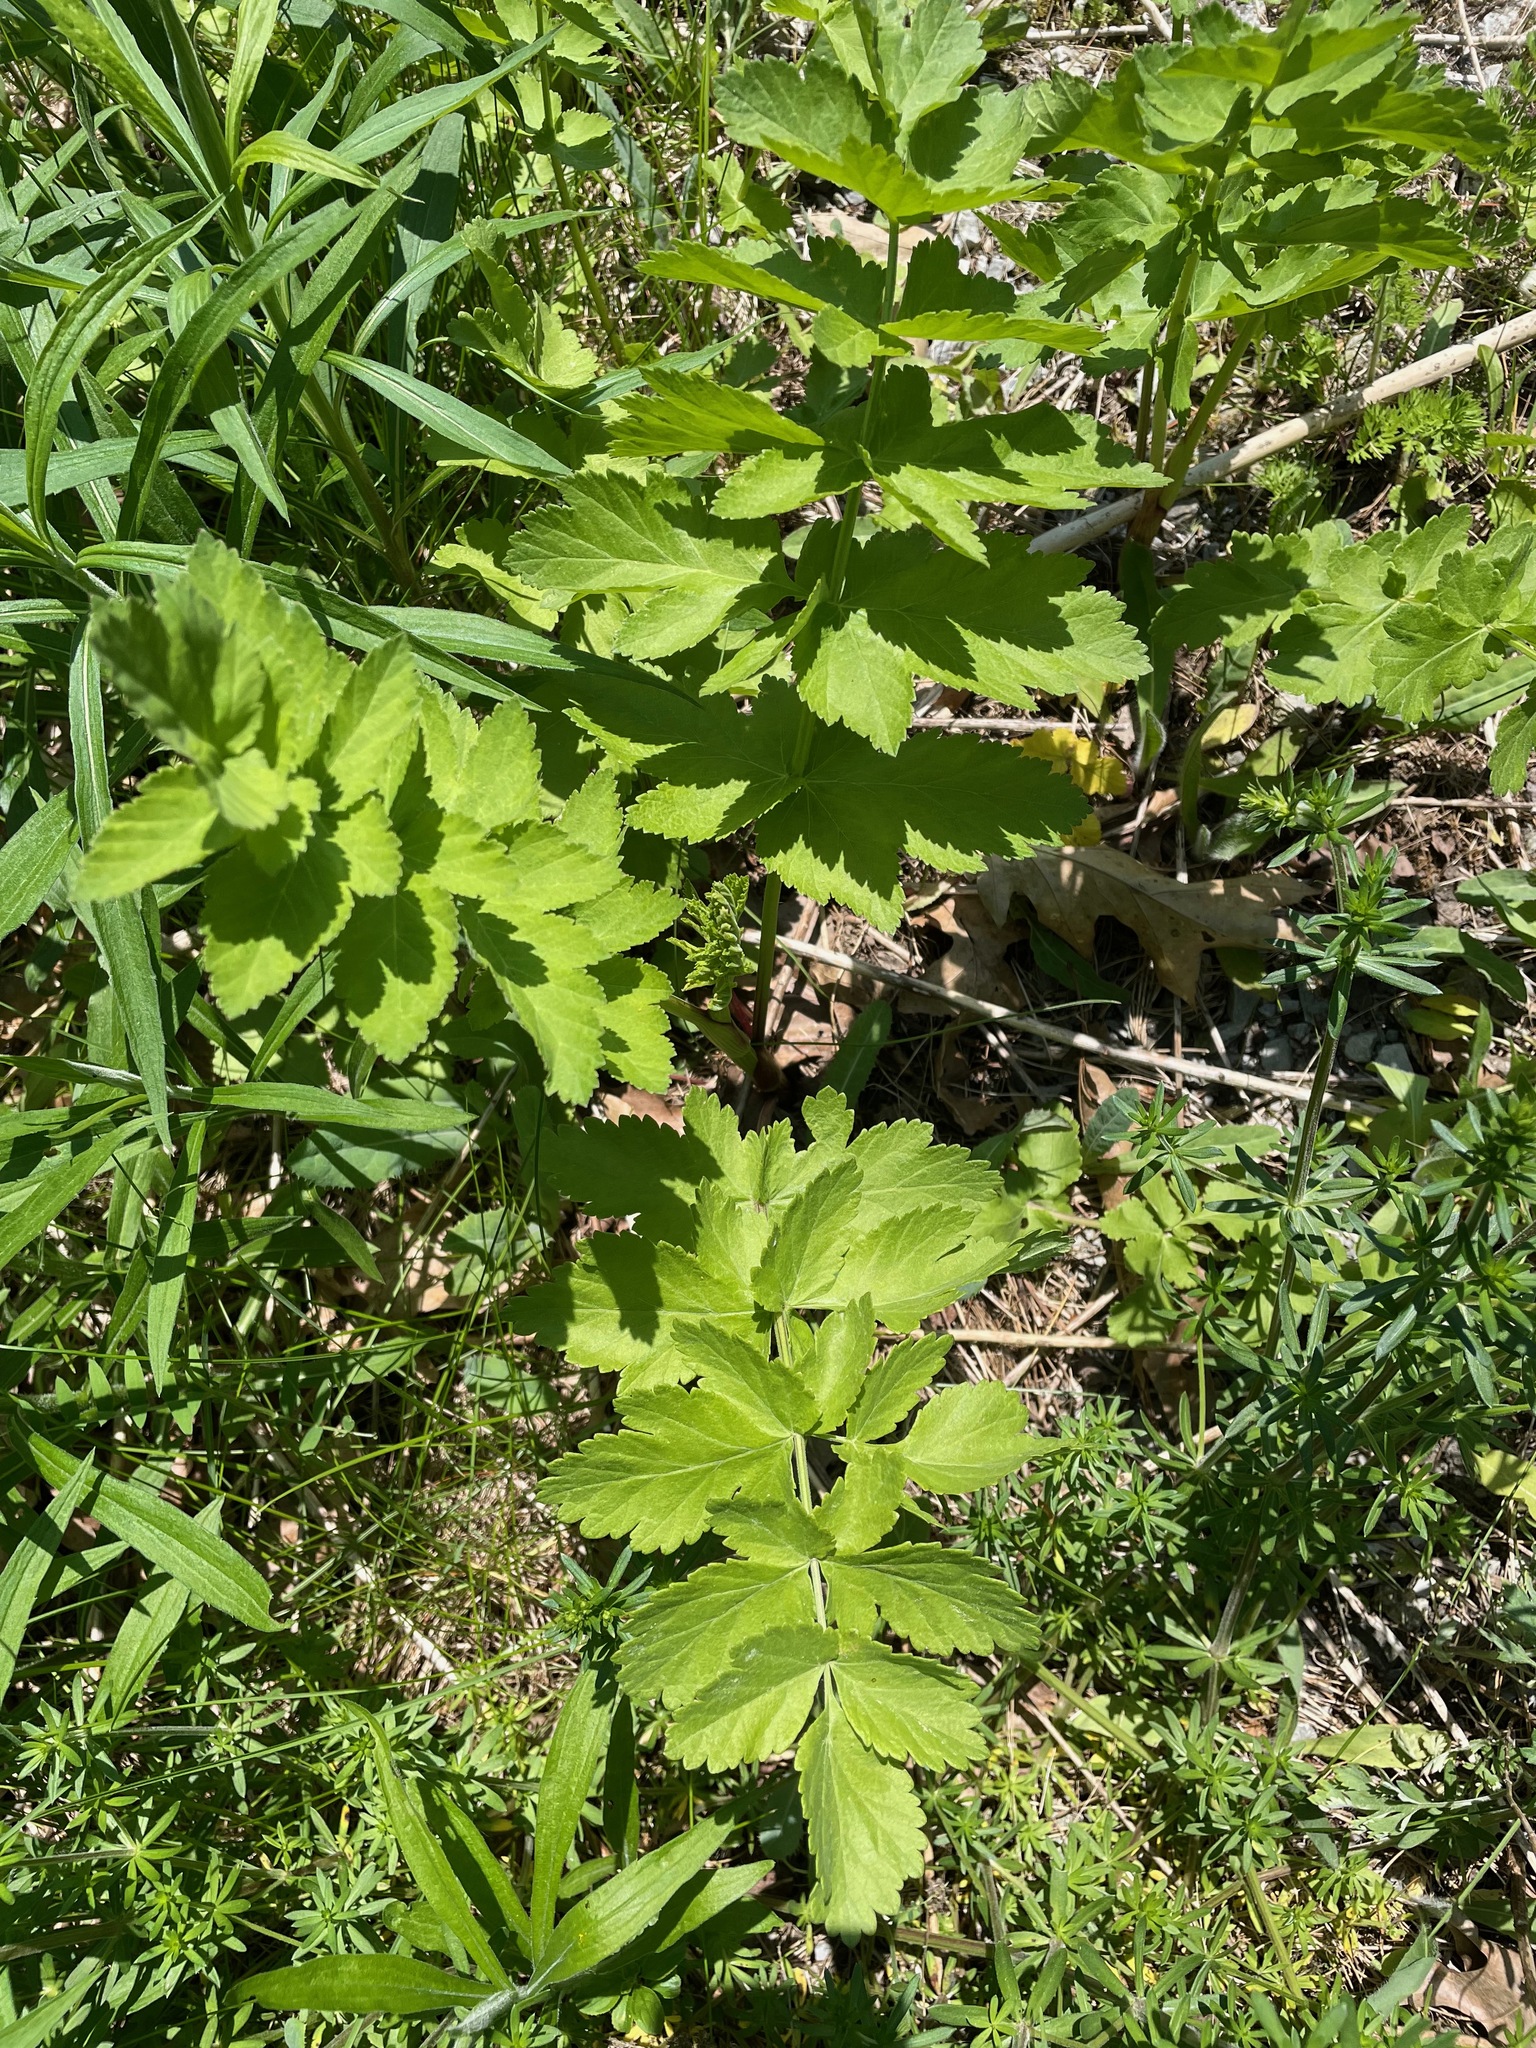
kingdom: Plantae
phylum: Tracheophyta
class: Magnoliopsida
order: Apiales
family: Apiaceae
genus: Pastinaca
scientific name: Pastinaca sativa
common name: Wild parsnip
